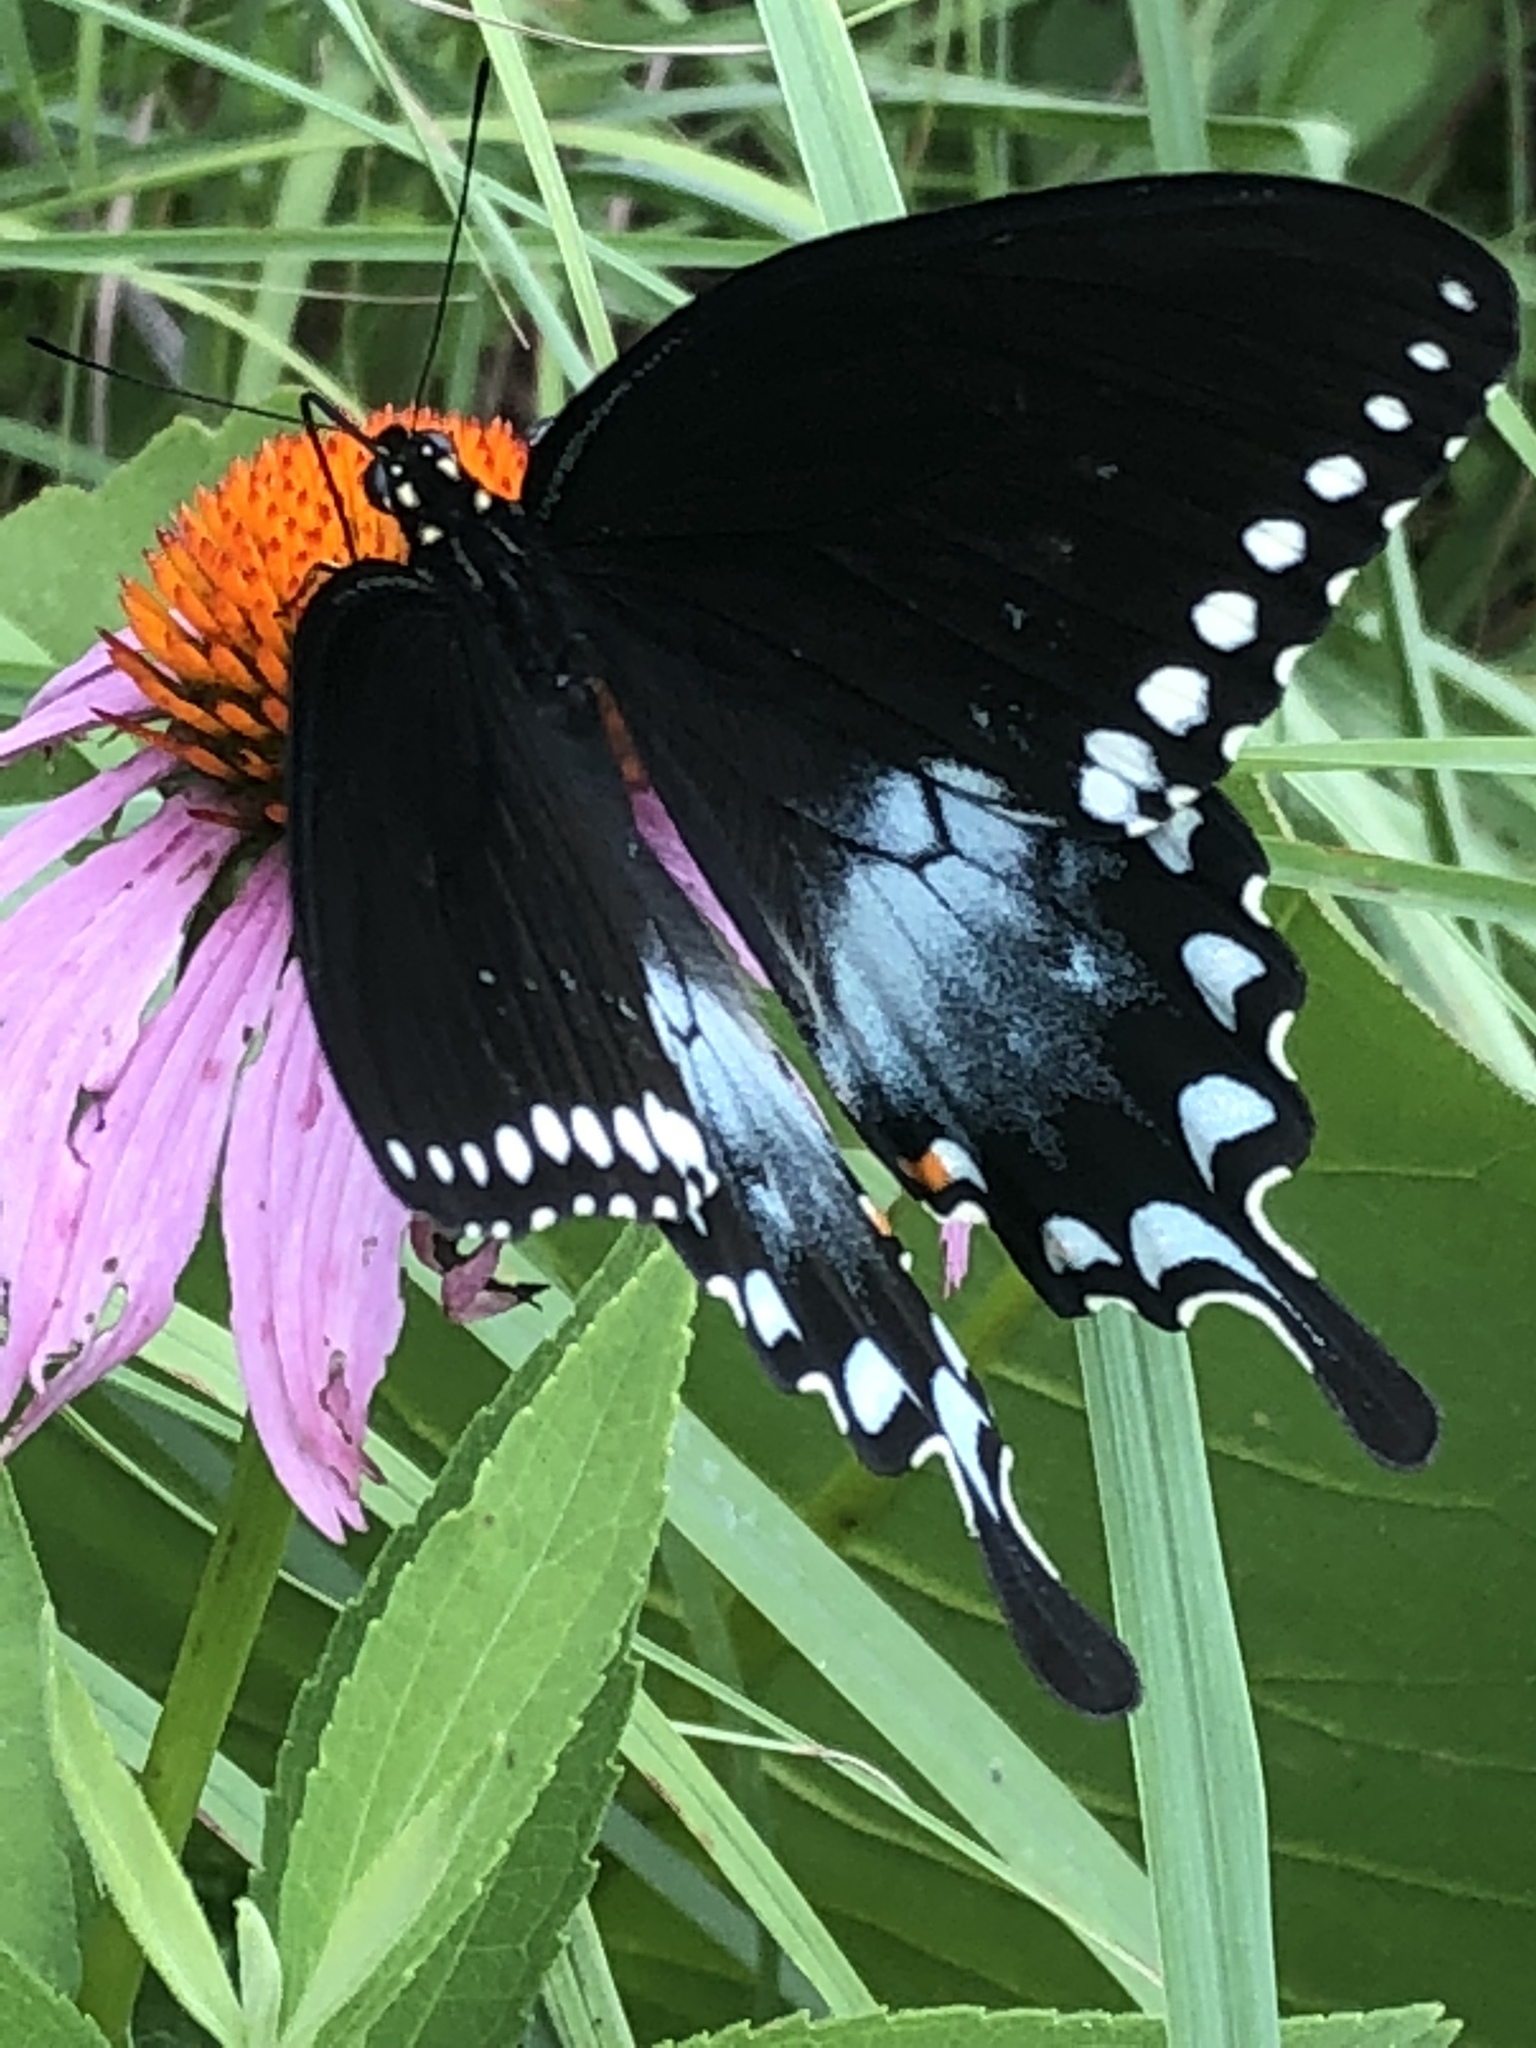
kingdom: Animalia
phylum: Arthropoda
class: Insecta
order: Lepidoptera
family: Papilionidae
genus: Papilio
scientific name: Papilio troilus
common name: Spicebush swallowtail
